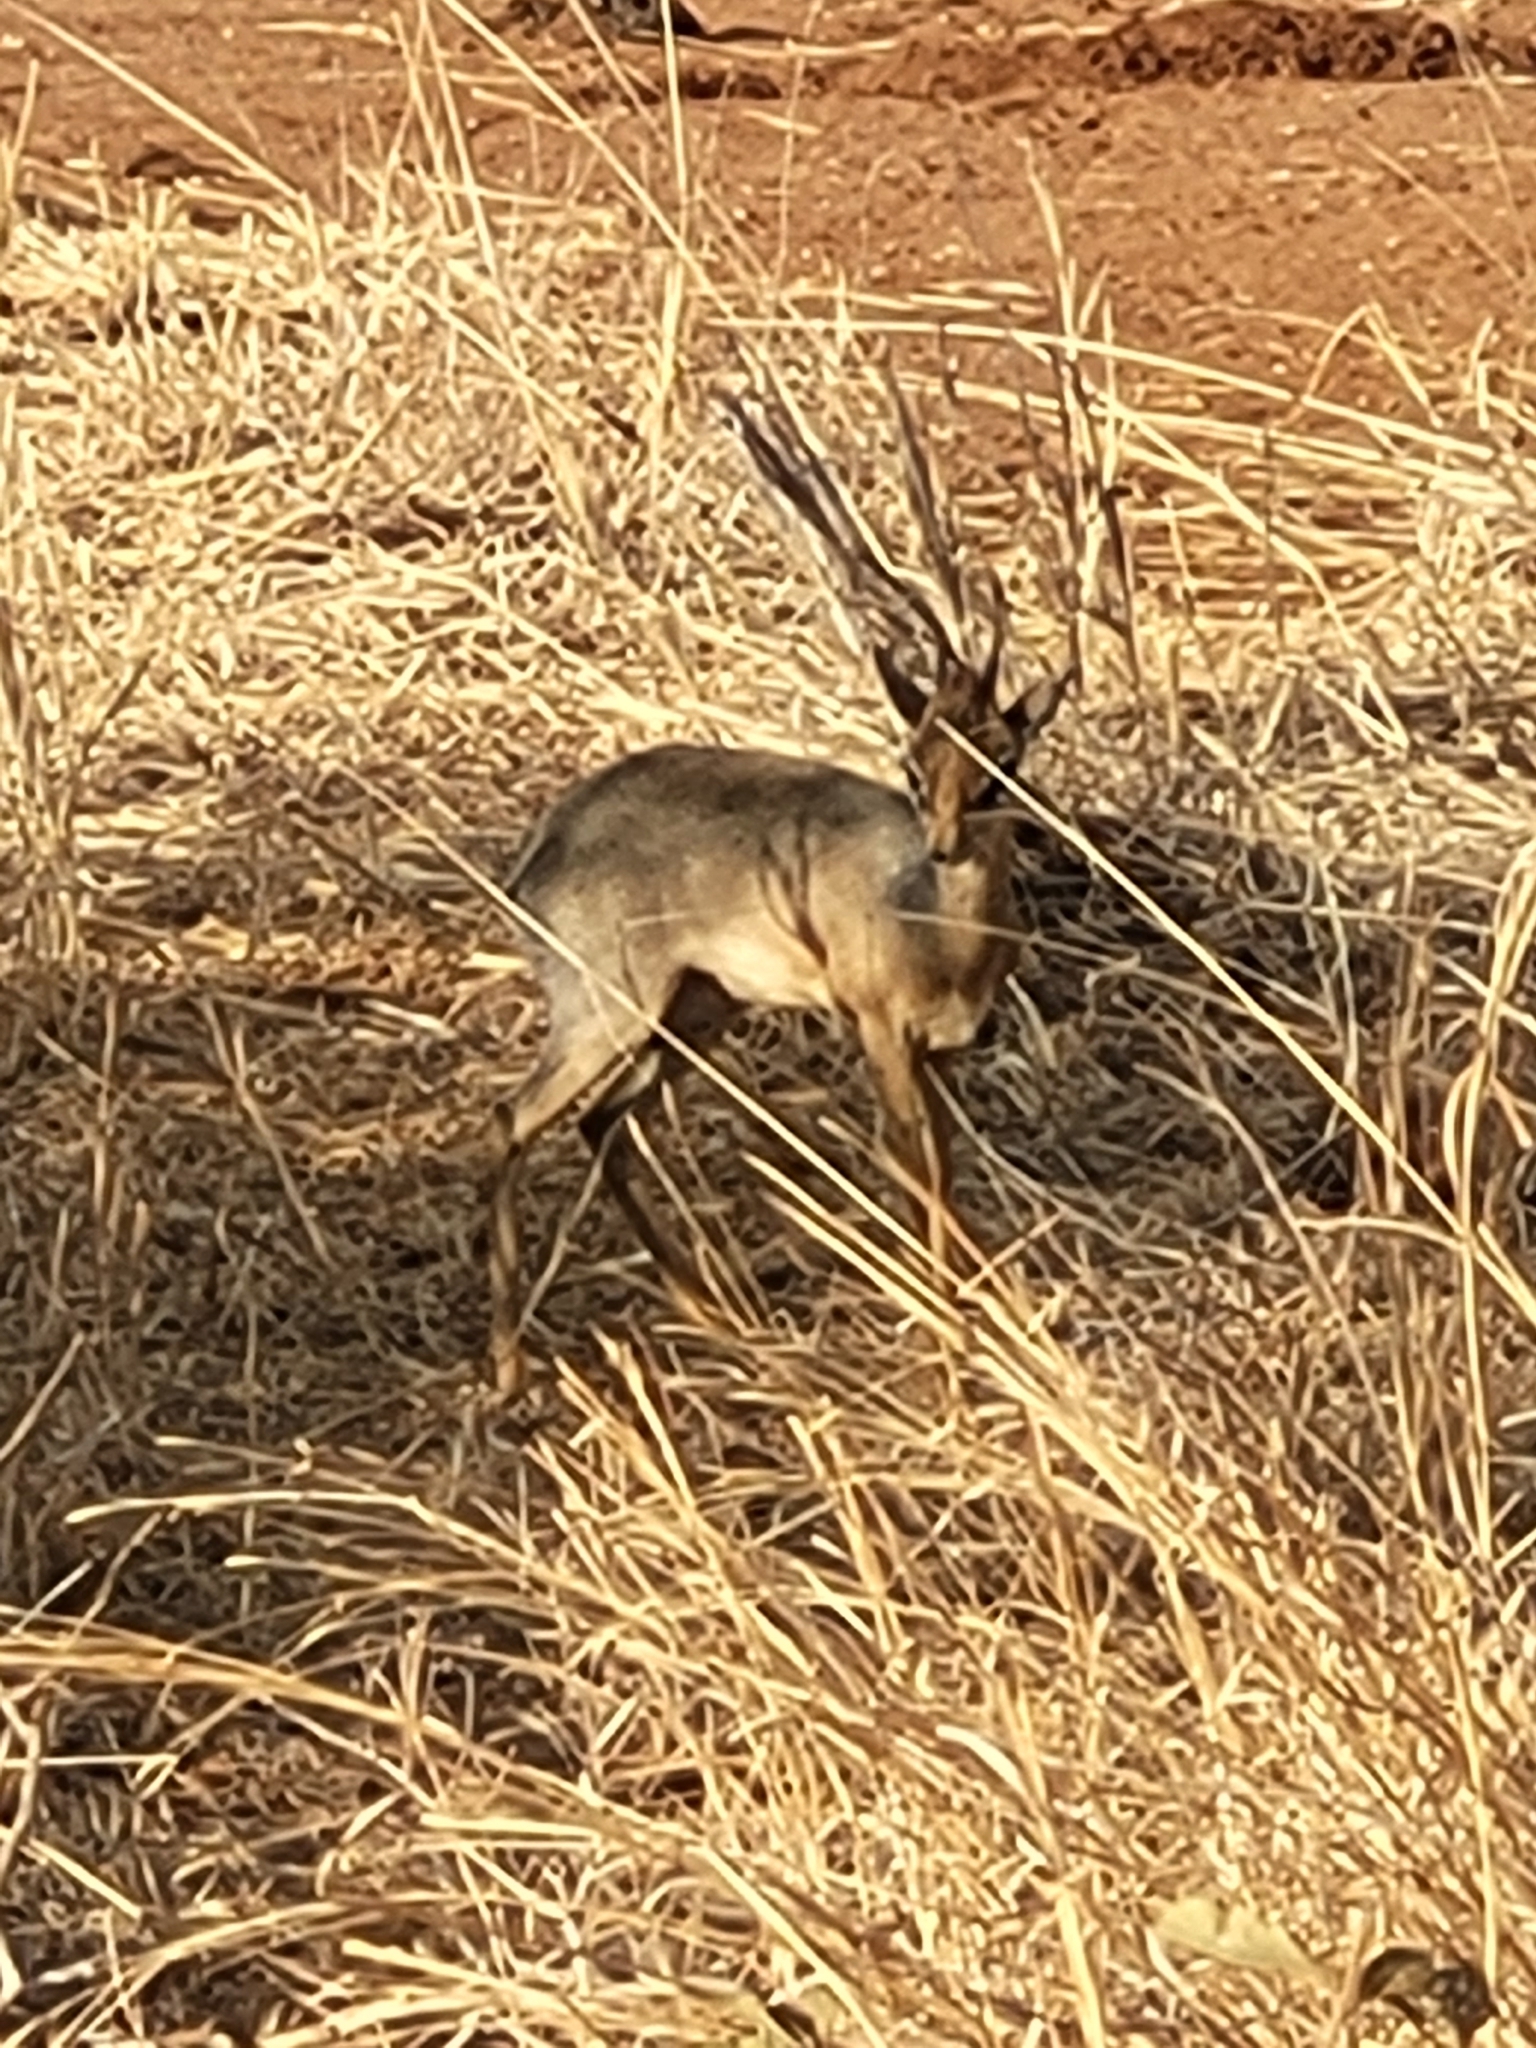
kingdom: Animalia
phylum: Chordata
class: Mammalia
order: Artiodactyla
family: Bovidae
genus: Madoqua
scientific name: Madoqua
